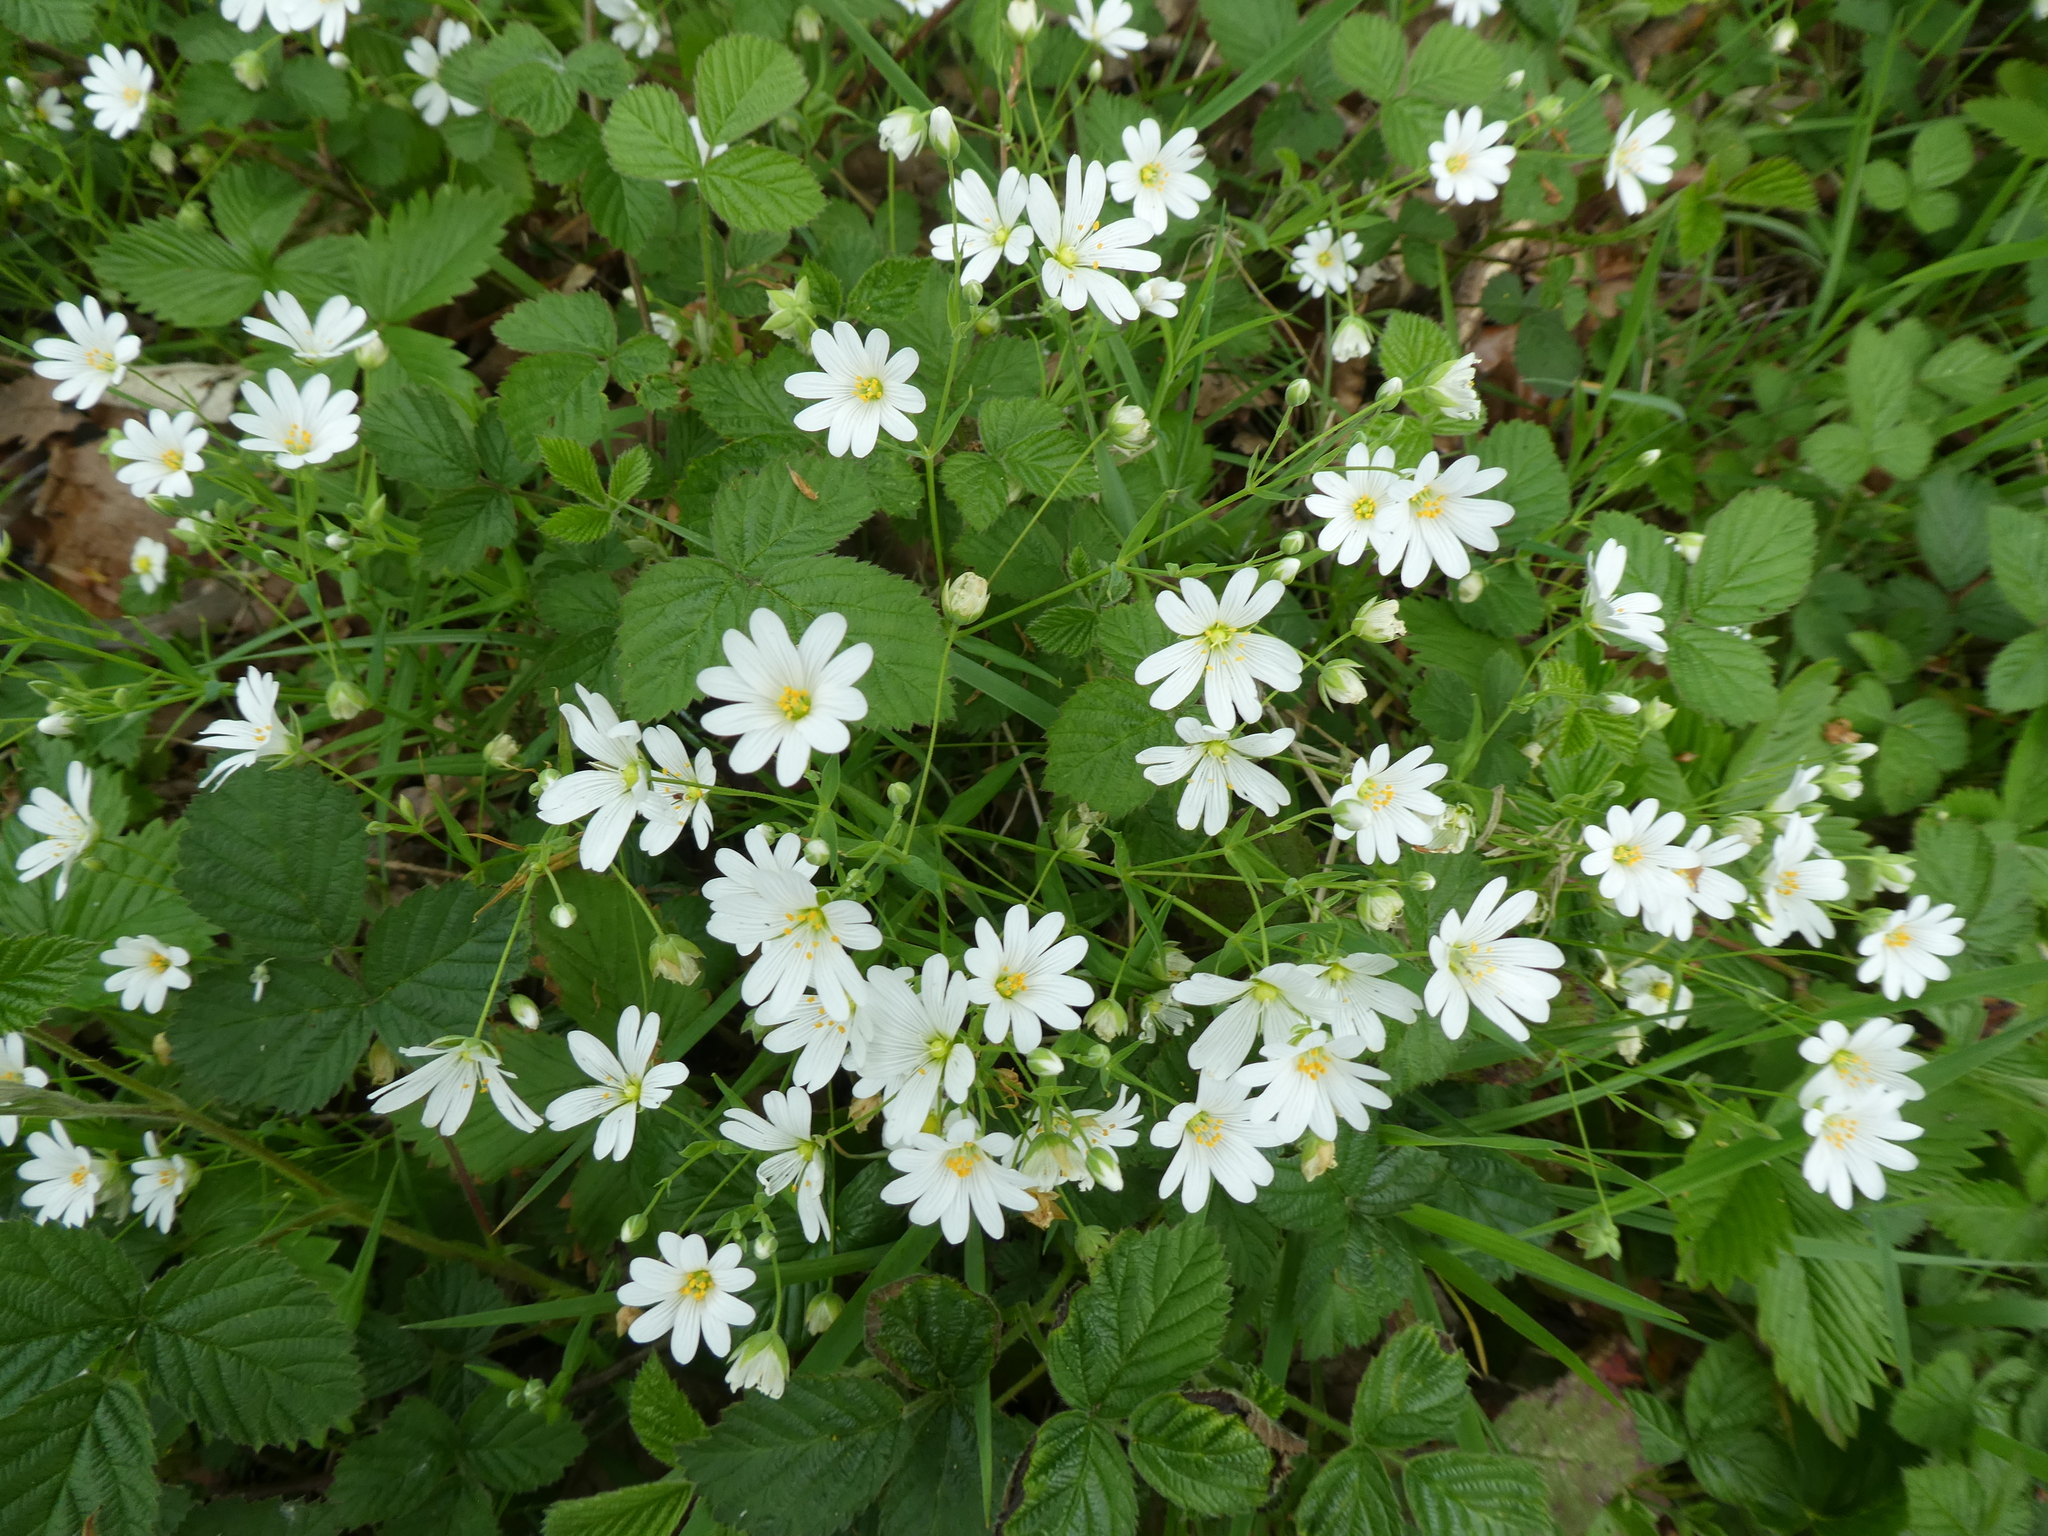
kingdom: Plantae
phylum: Tracheophyta
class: Magnoliopsida
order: Caryophyllales
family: Caryophyllaceae
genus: Rabelera
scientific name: Rabelera holostea
